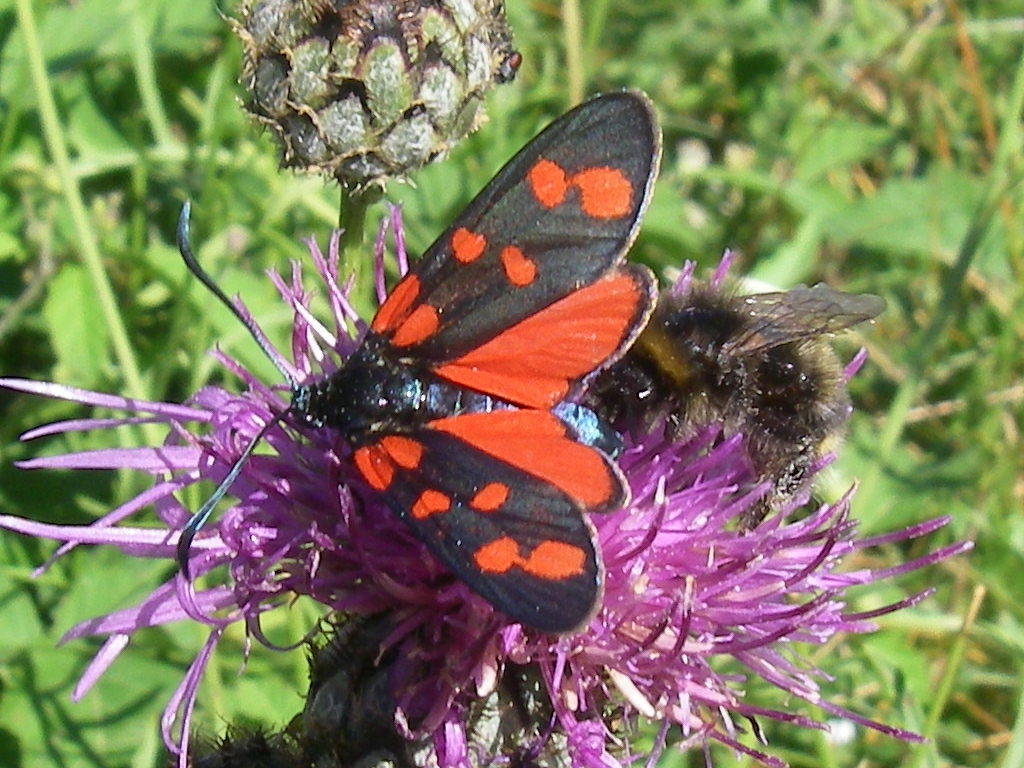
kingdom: Animalia
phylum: Arthropoda
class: Insecta
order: Lepidoptera
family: Zygaenidae
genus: Zygaena
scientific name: Zygaena filipendulae
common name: Six-spot burnet
